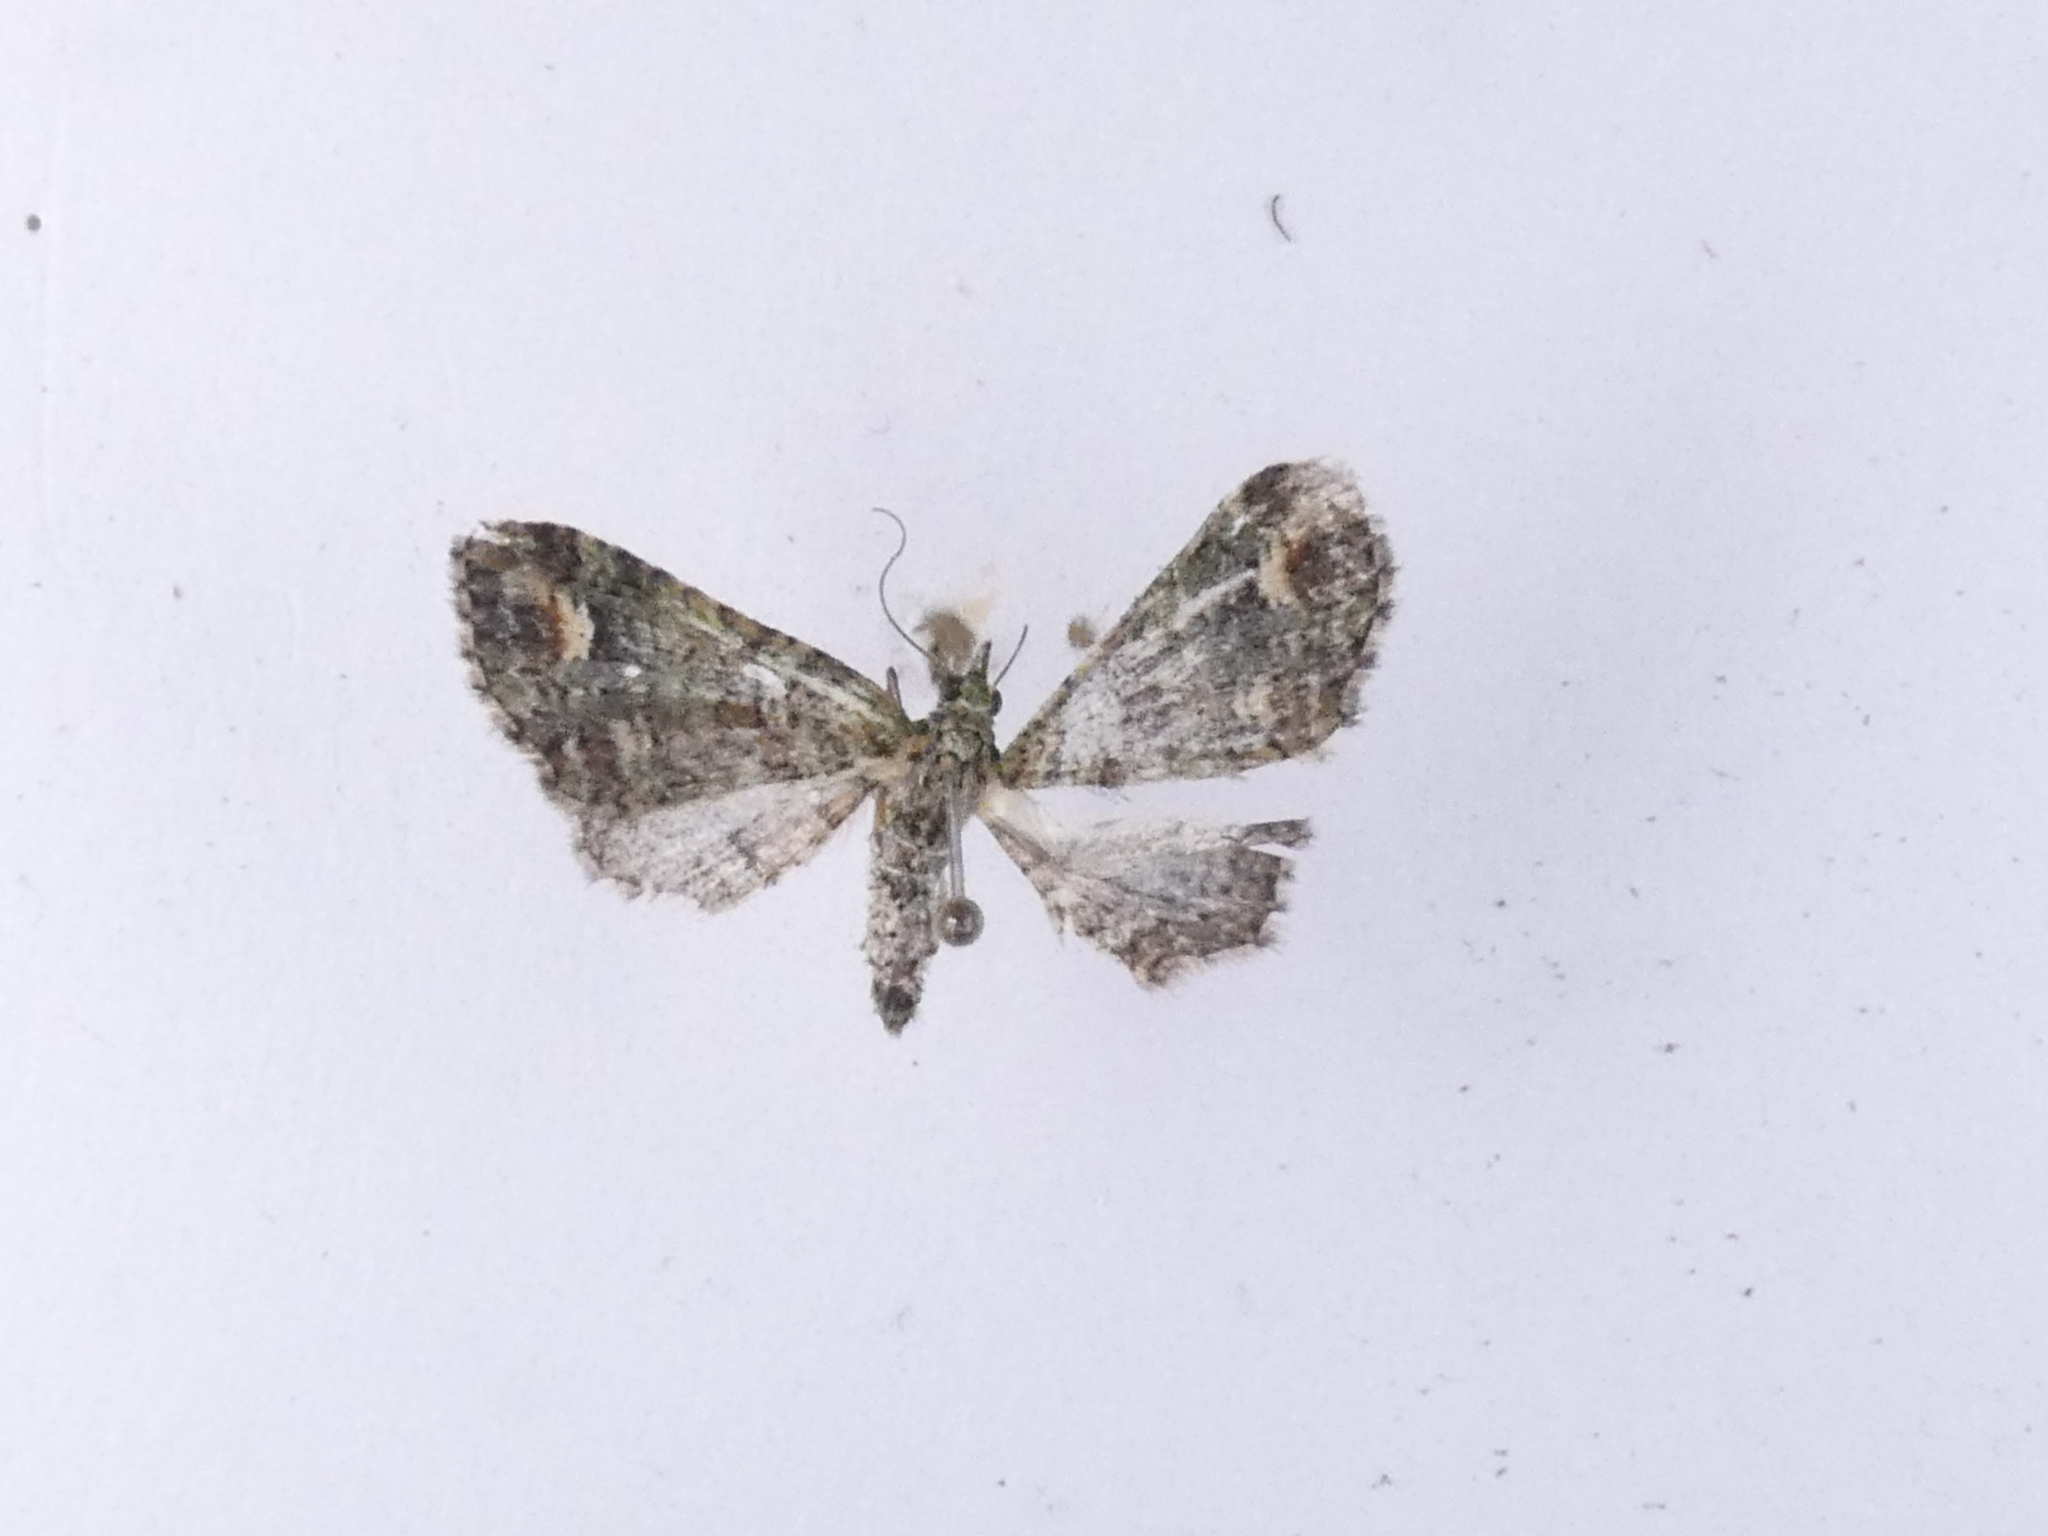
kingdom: Animalia
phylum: Arthropoda
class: Insecta
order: Lepidoptera
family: Geometridae
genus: Idaea
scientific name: Idaea mutanda
